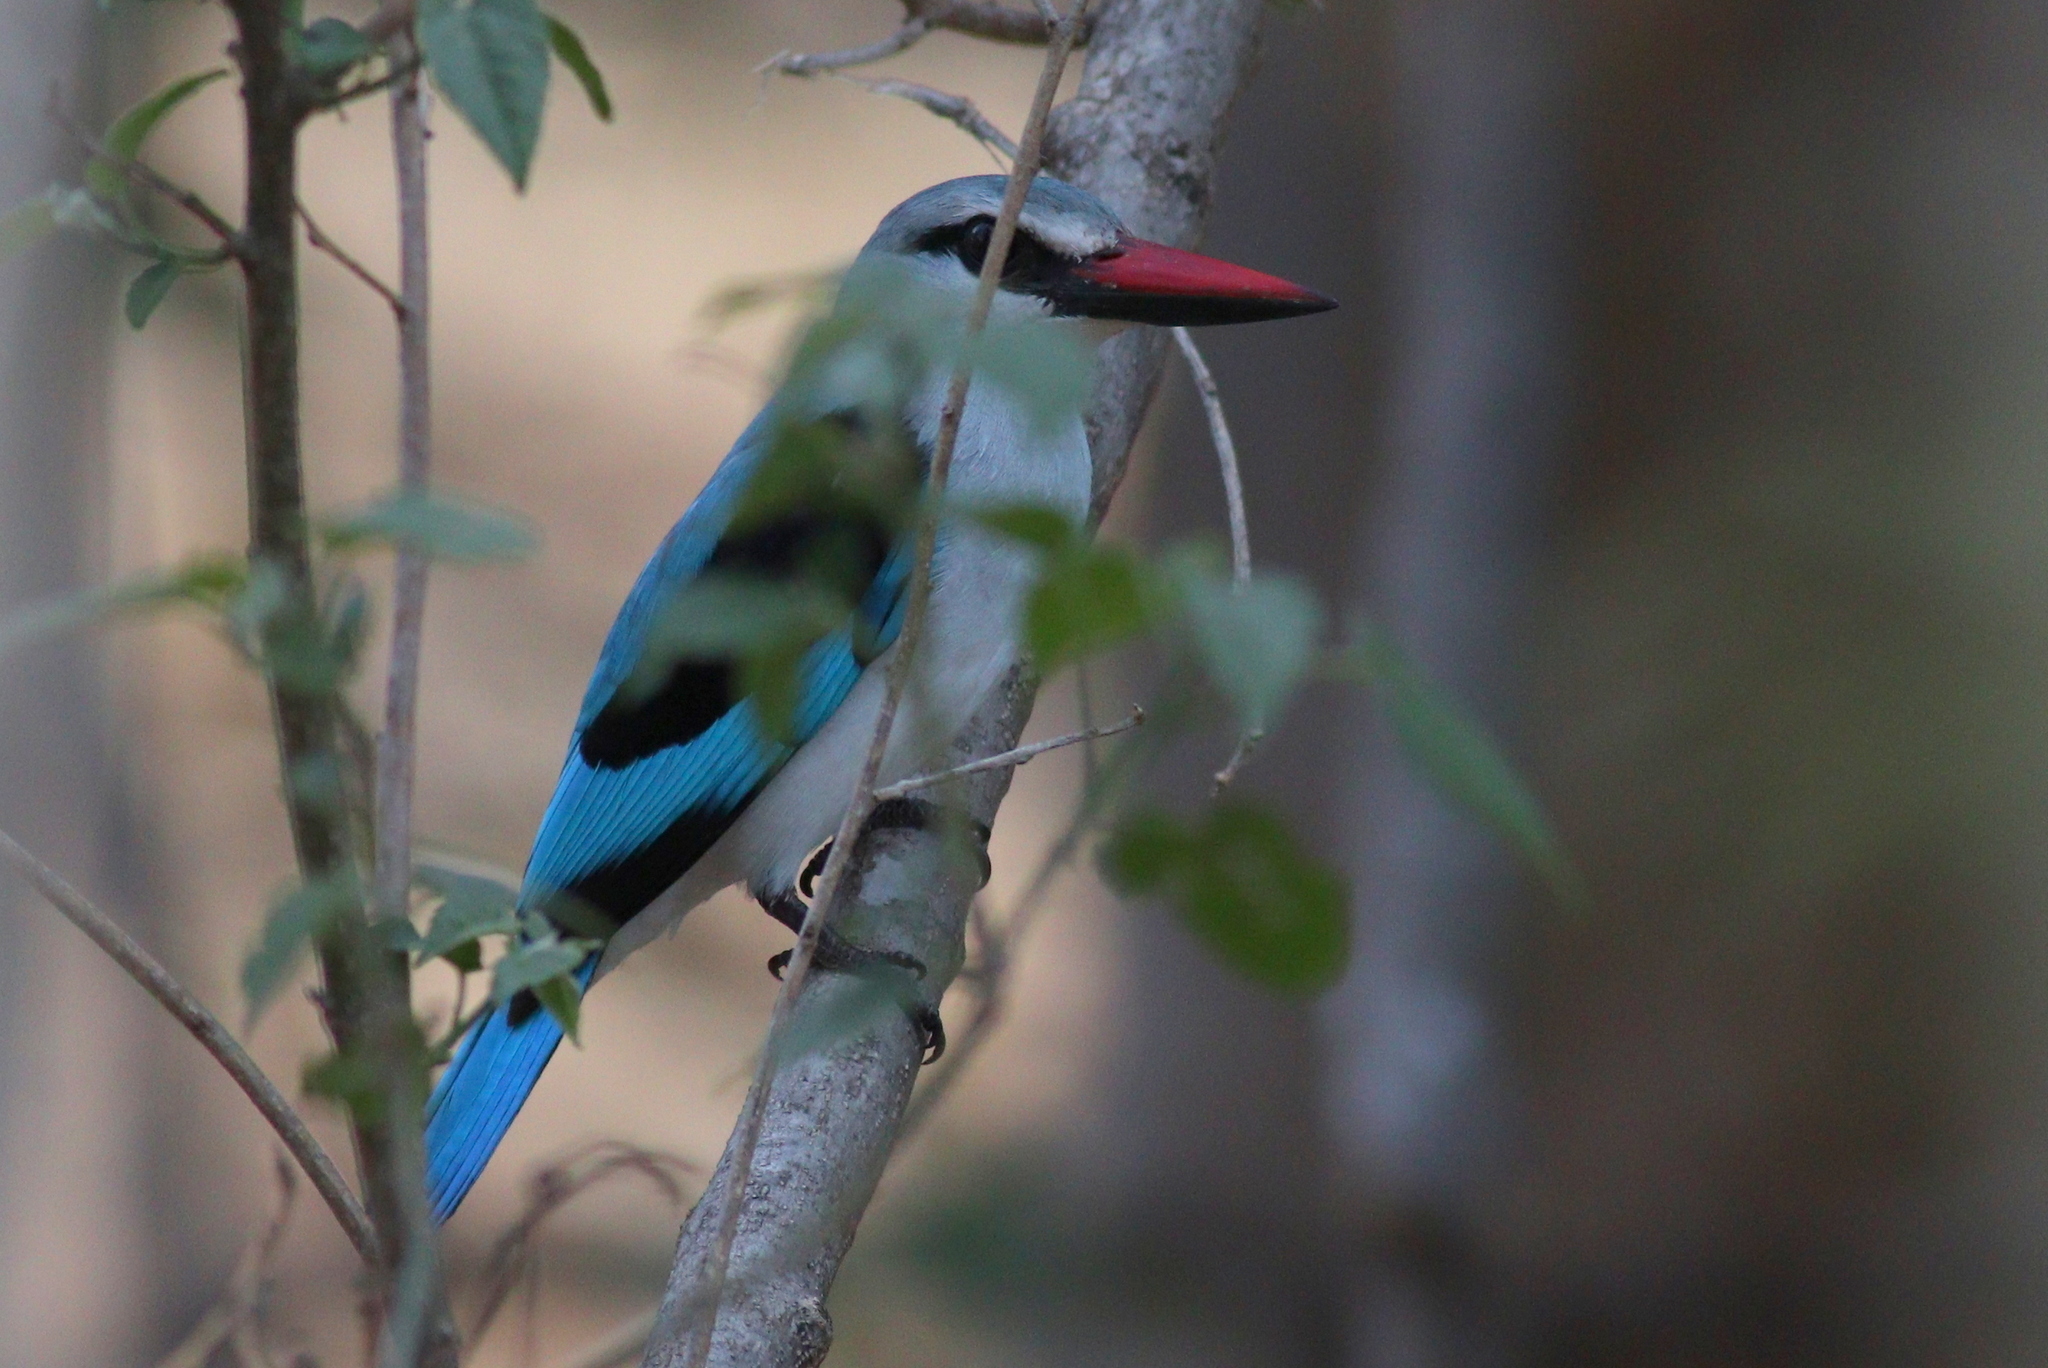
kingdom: Animalia
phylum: Chordata
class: Aves
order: Coraciiformes
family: Alcedinidae
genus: Halcyon
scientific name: Halcyon senegalensis
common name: Woodland kingfisher
